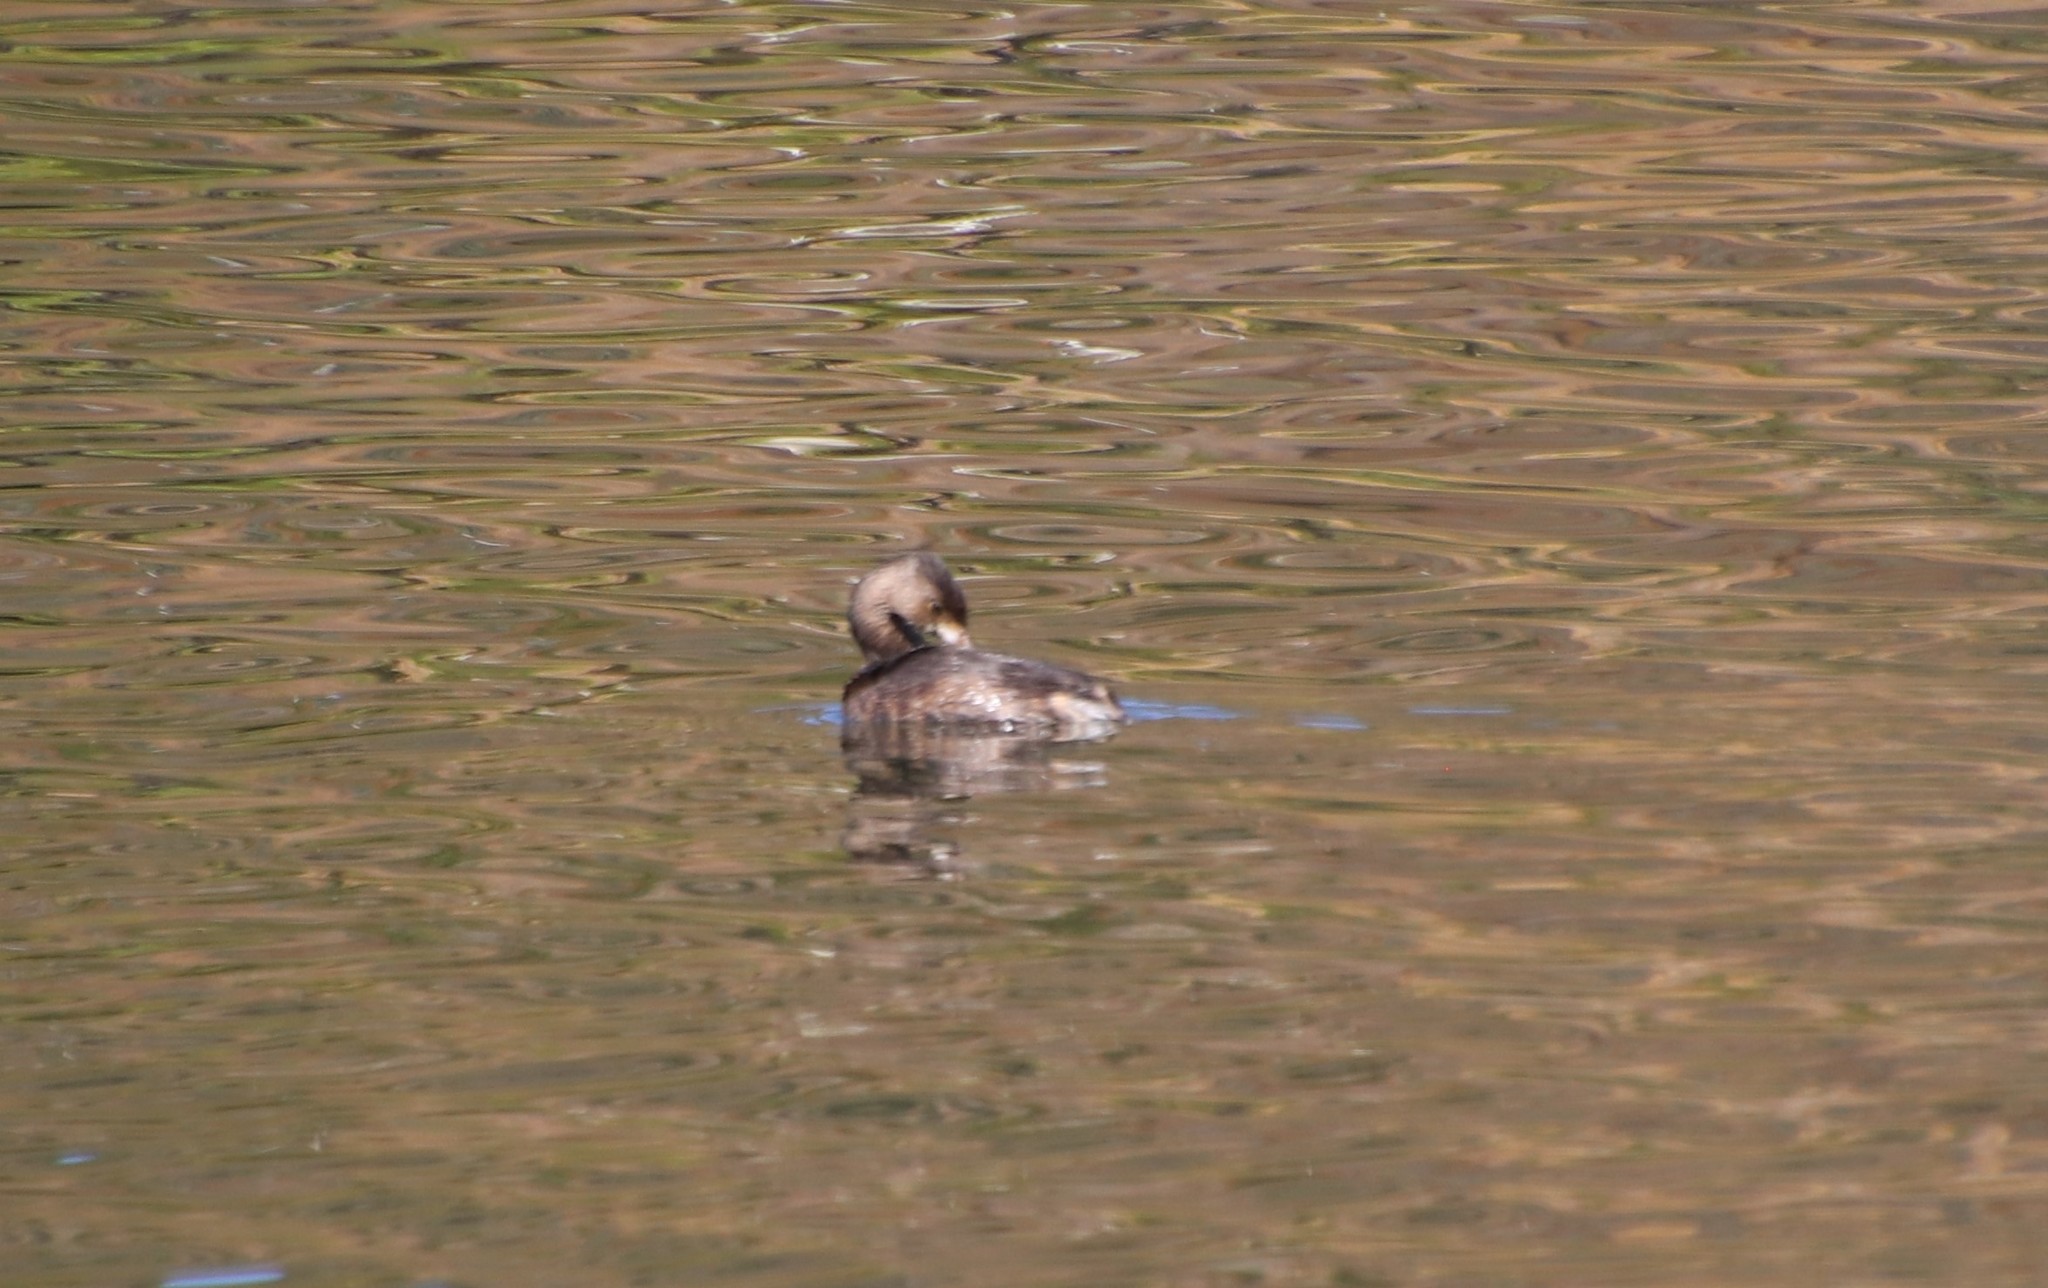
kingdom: Animalia
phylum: Chordata
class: Aves
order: Podicipediformes
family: Podicipedidae
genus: Podilymbus
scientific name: Podilymbus podiceps
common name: Pied-billed grebe
